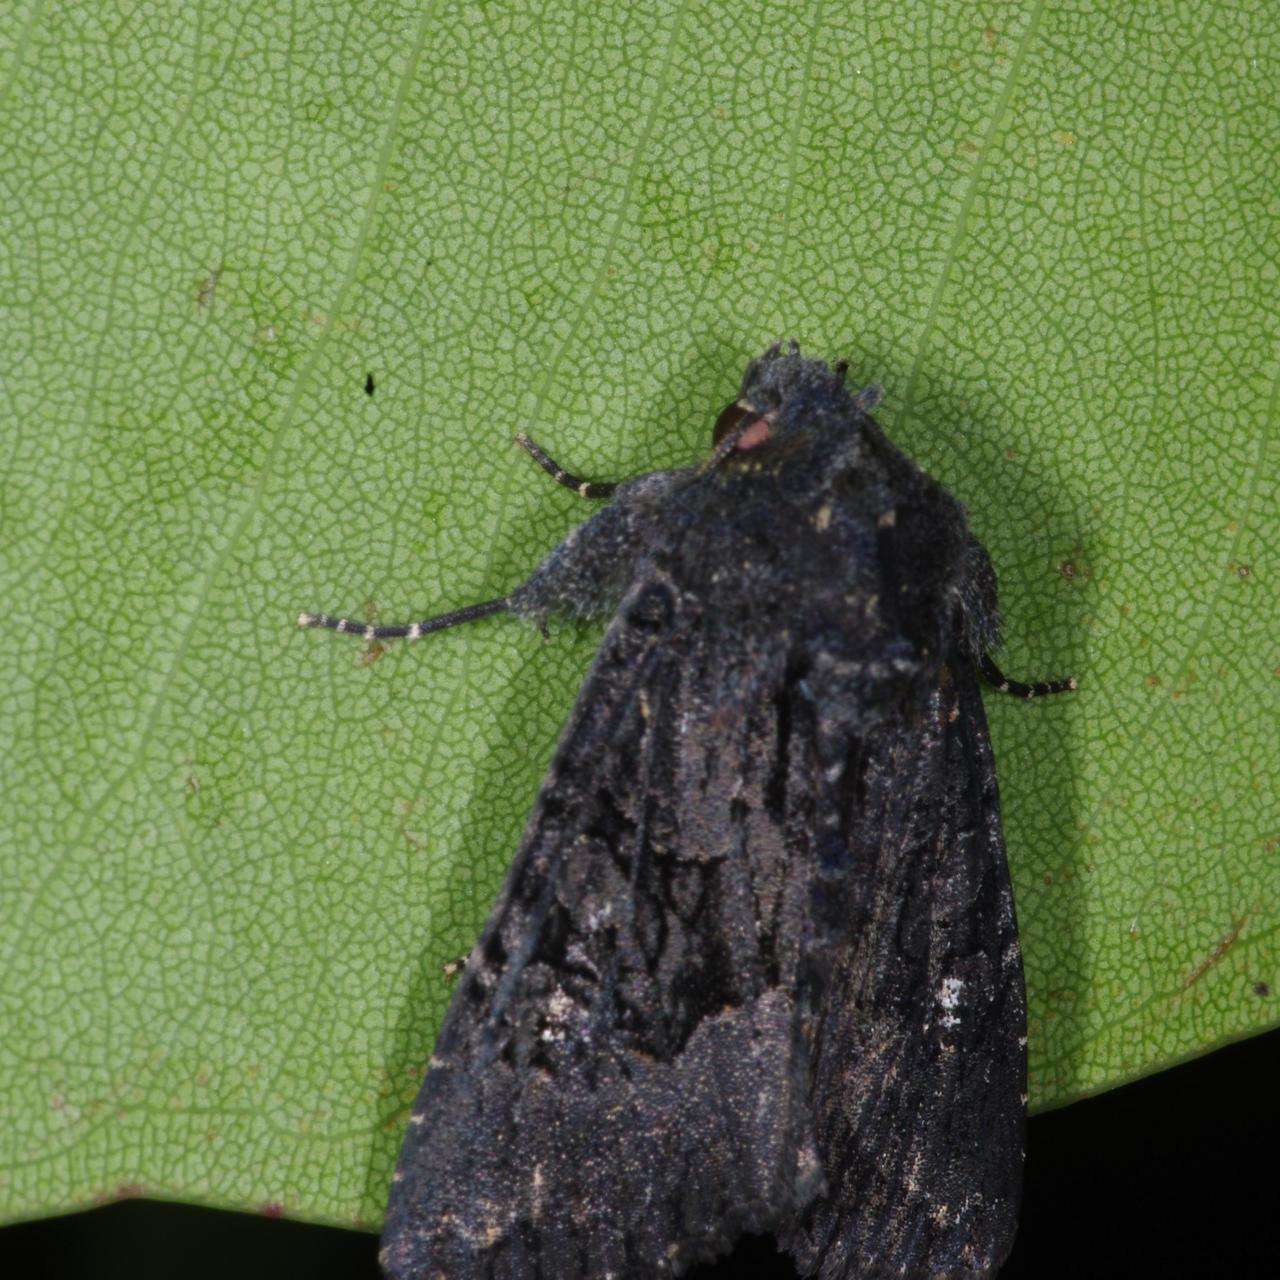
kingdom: Animalia
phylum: Arthropoda
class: Insecta
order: Lepidoptera
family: Noctuidae
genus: Neumichtis
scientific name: Neumichtis nigerrima
